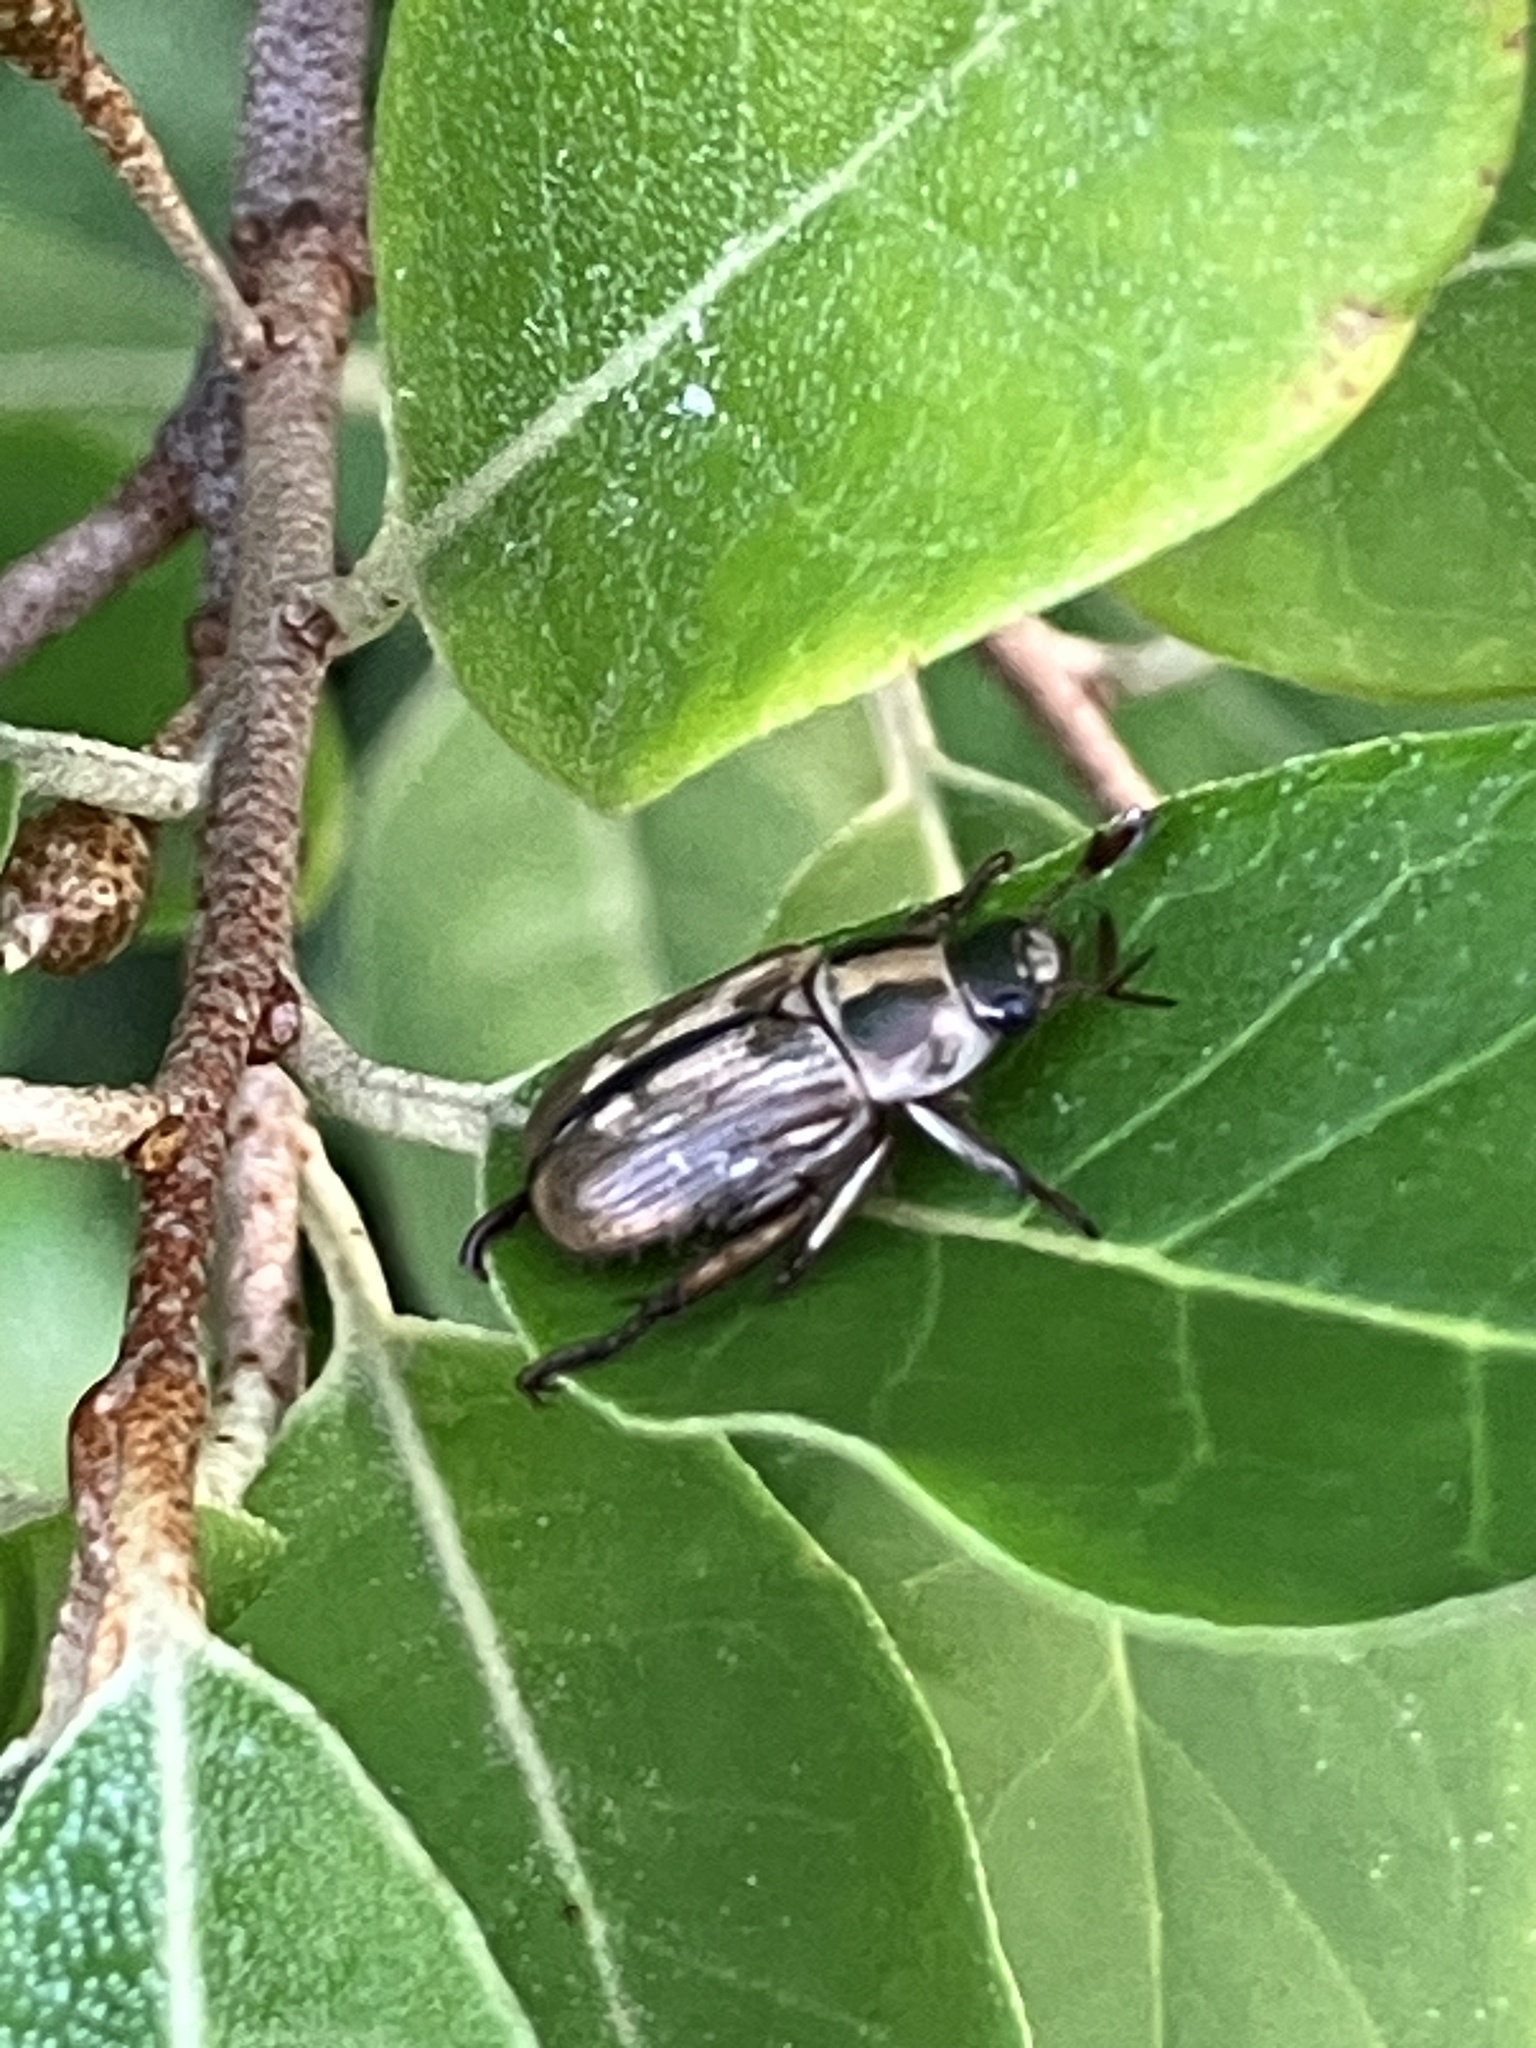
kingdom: Animalia
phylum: Arthropoda
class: Insecta
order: Coleoptera
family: Scarabaeidae
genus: Exomala
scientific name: Exomala orientalis
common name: Oriental beetle
